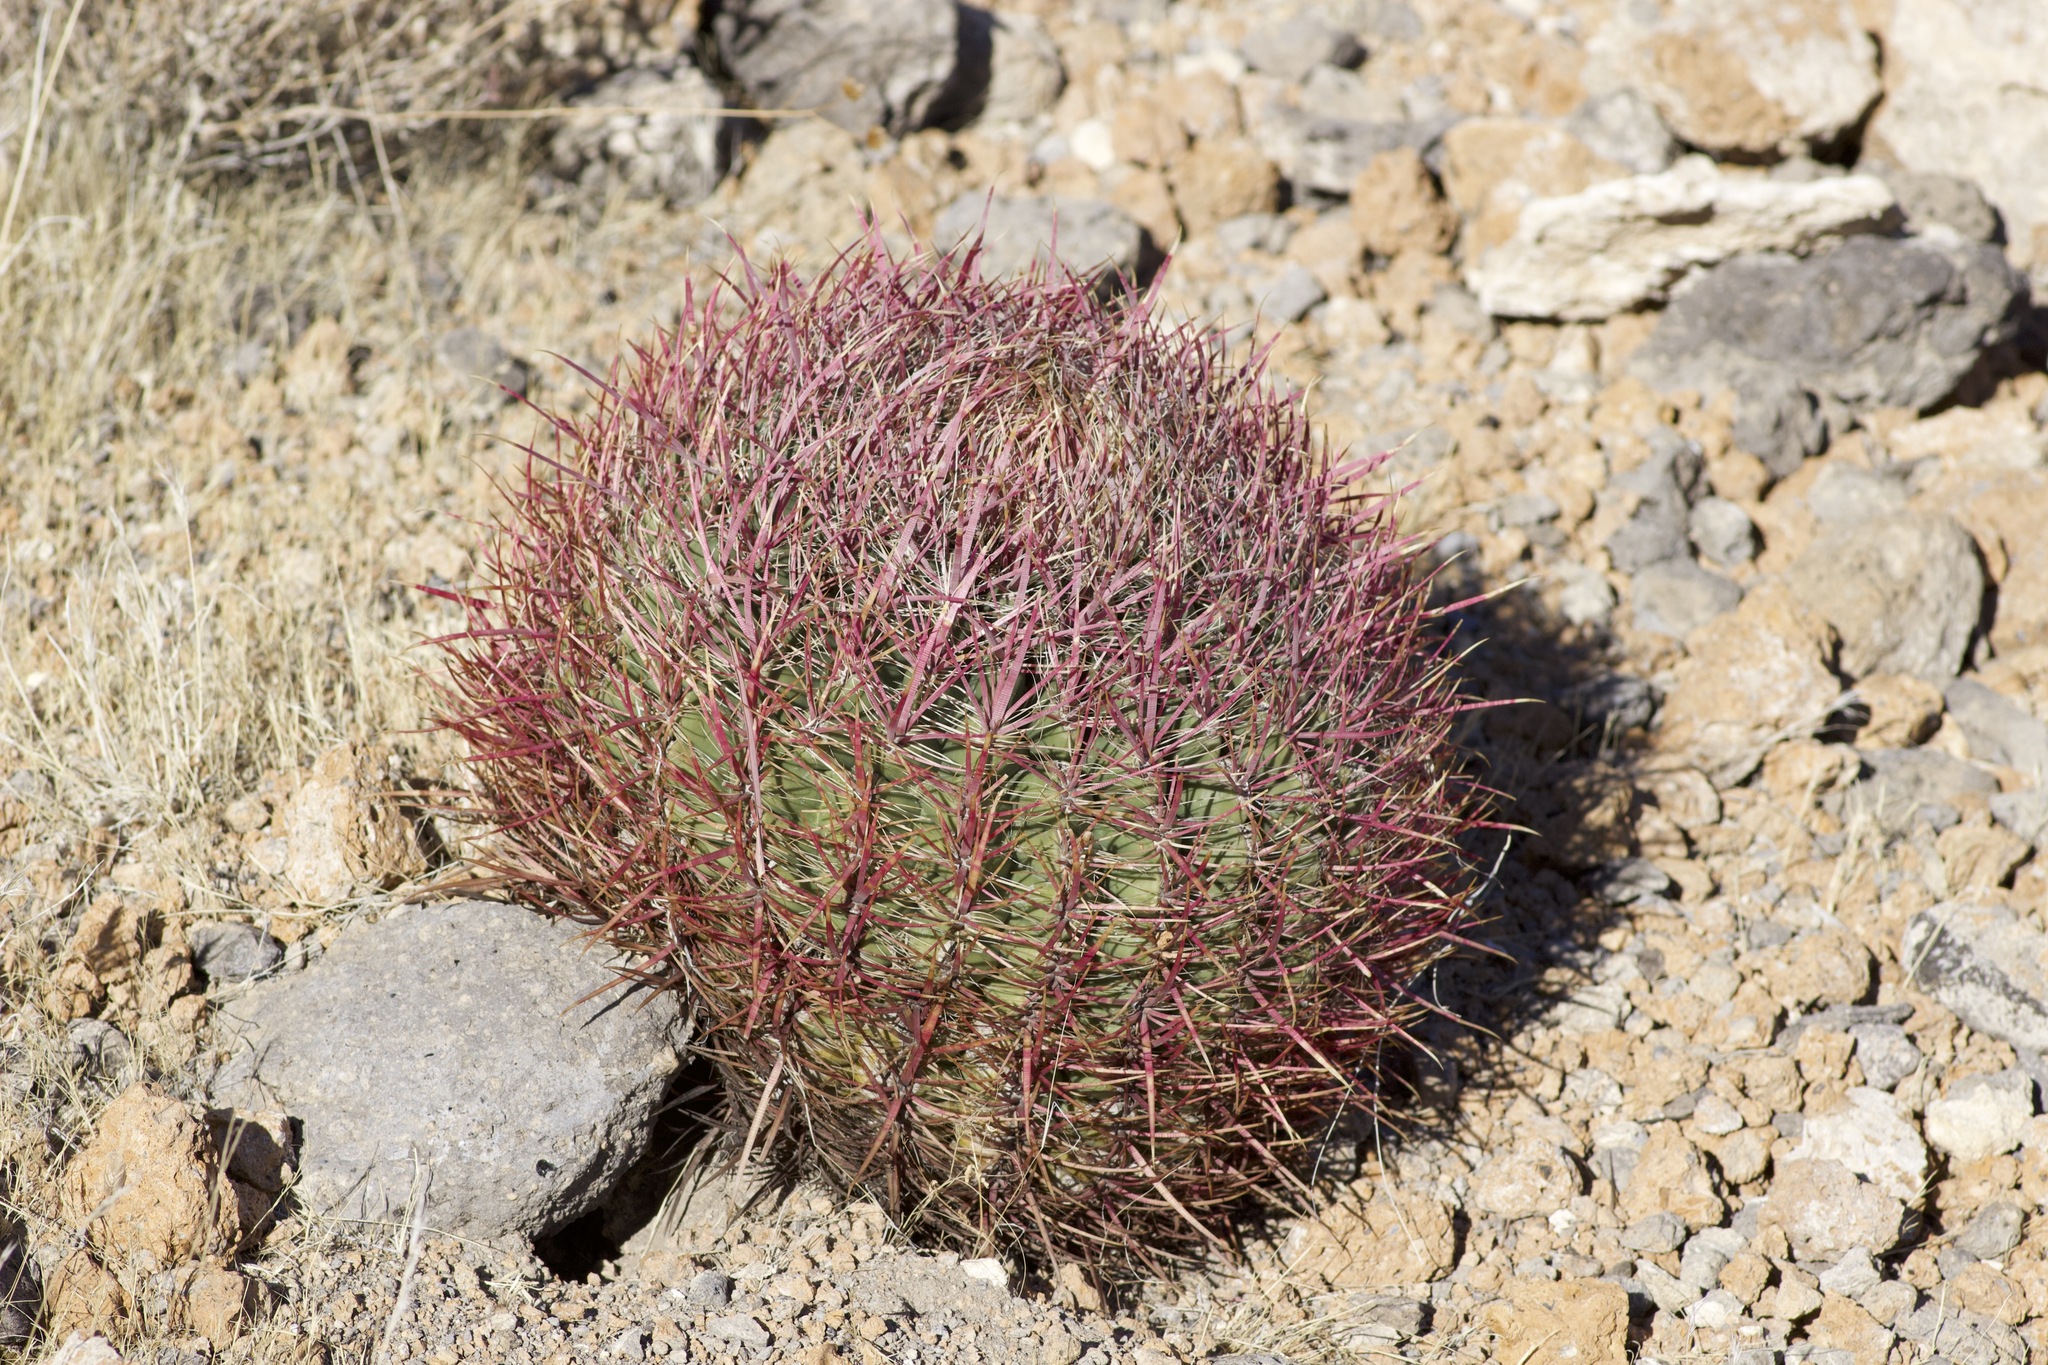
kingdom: Plantae
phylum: Tracheophyta
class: Magnoliopsida
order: Caryophyllales
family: Cactaceae
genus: Ferocactus
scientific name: Ferocactus cylindraceus
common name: California barrel cactus
